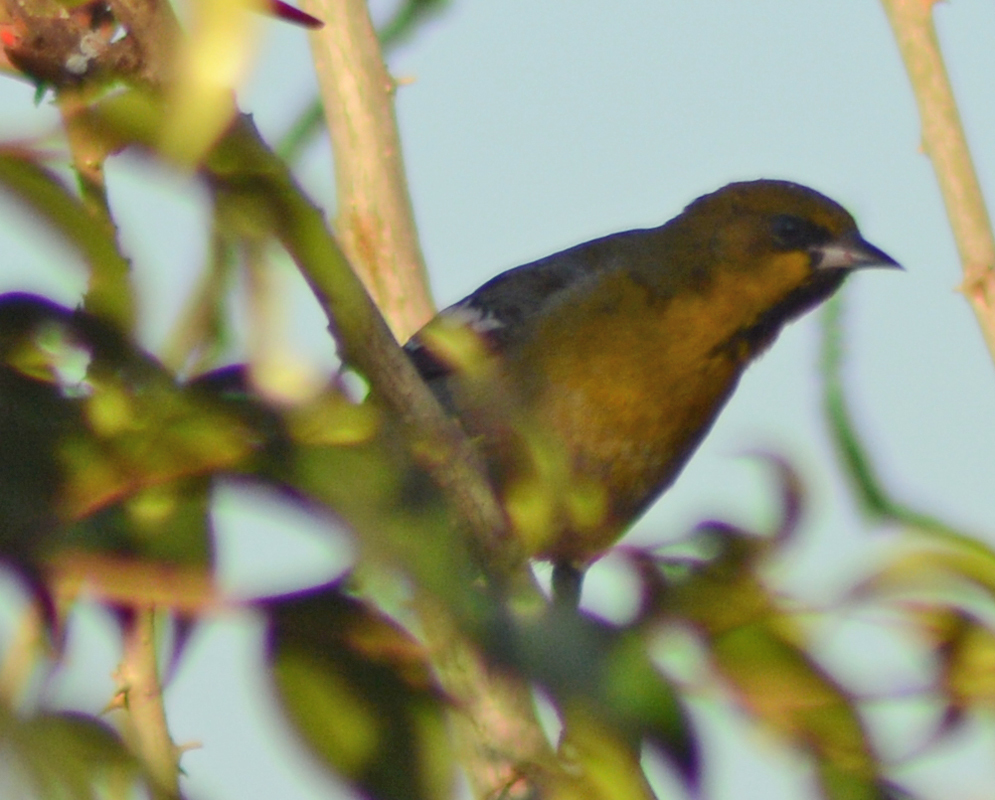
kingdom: Animalia
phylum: Chordata
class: Aves
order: Passeriformes
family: Icteridae
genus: Icterus
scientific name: Icterus abeillei
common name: Black-backed oriole
